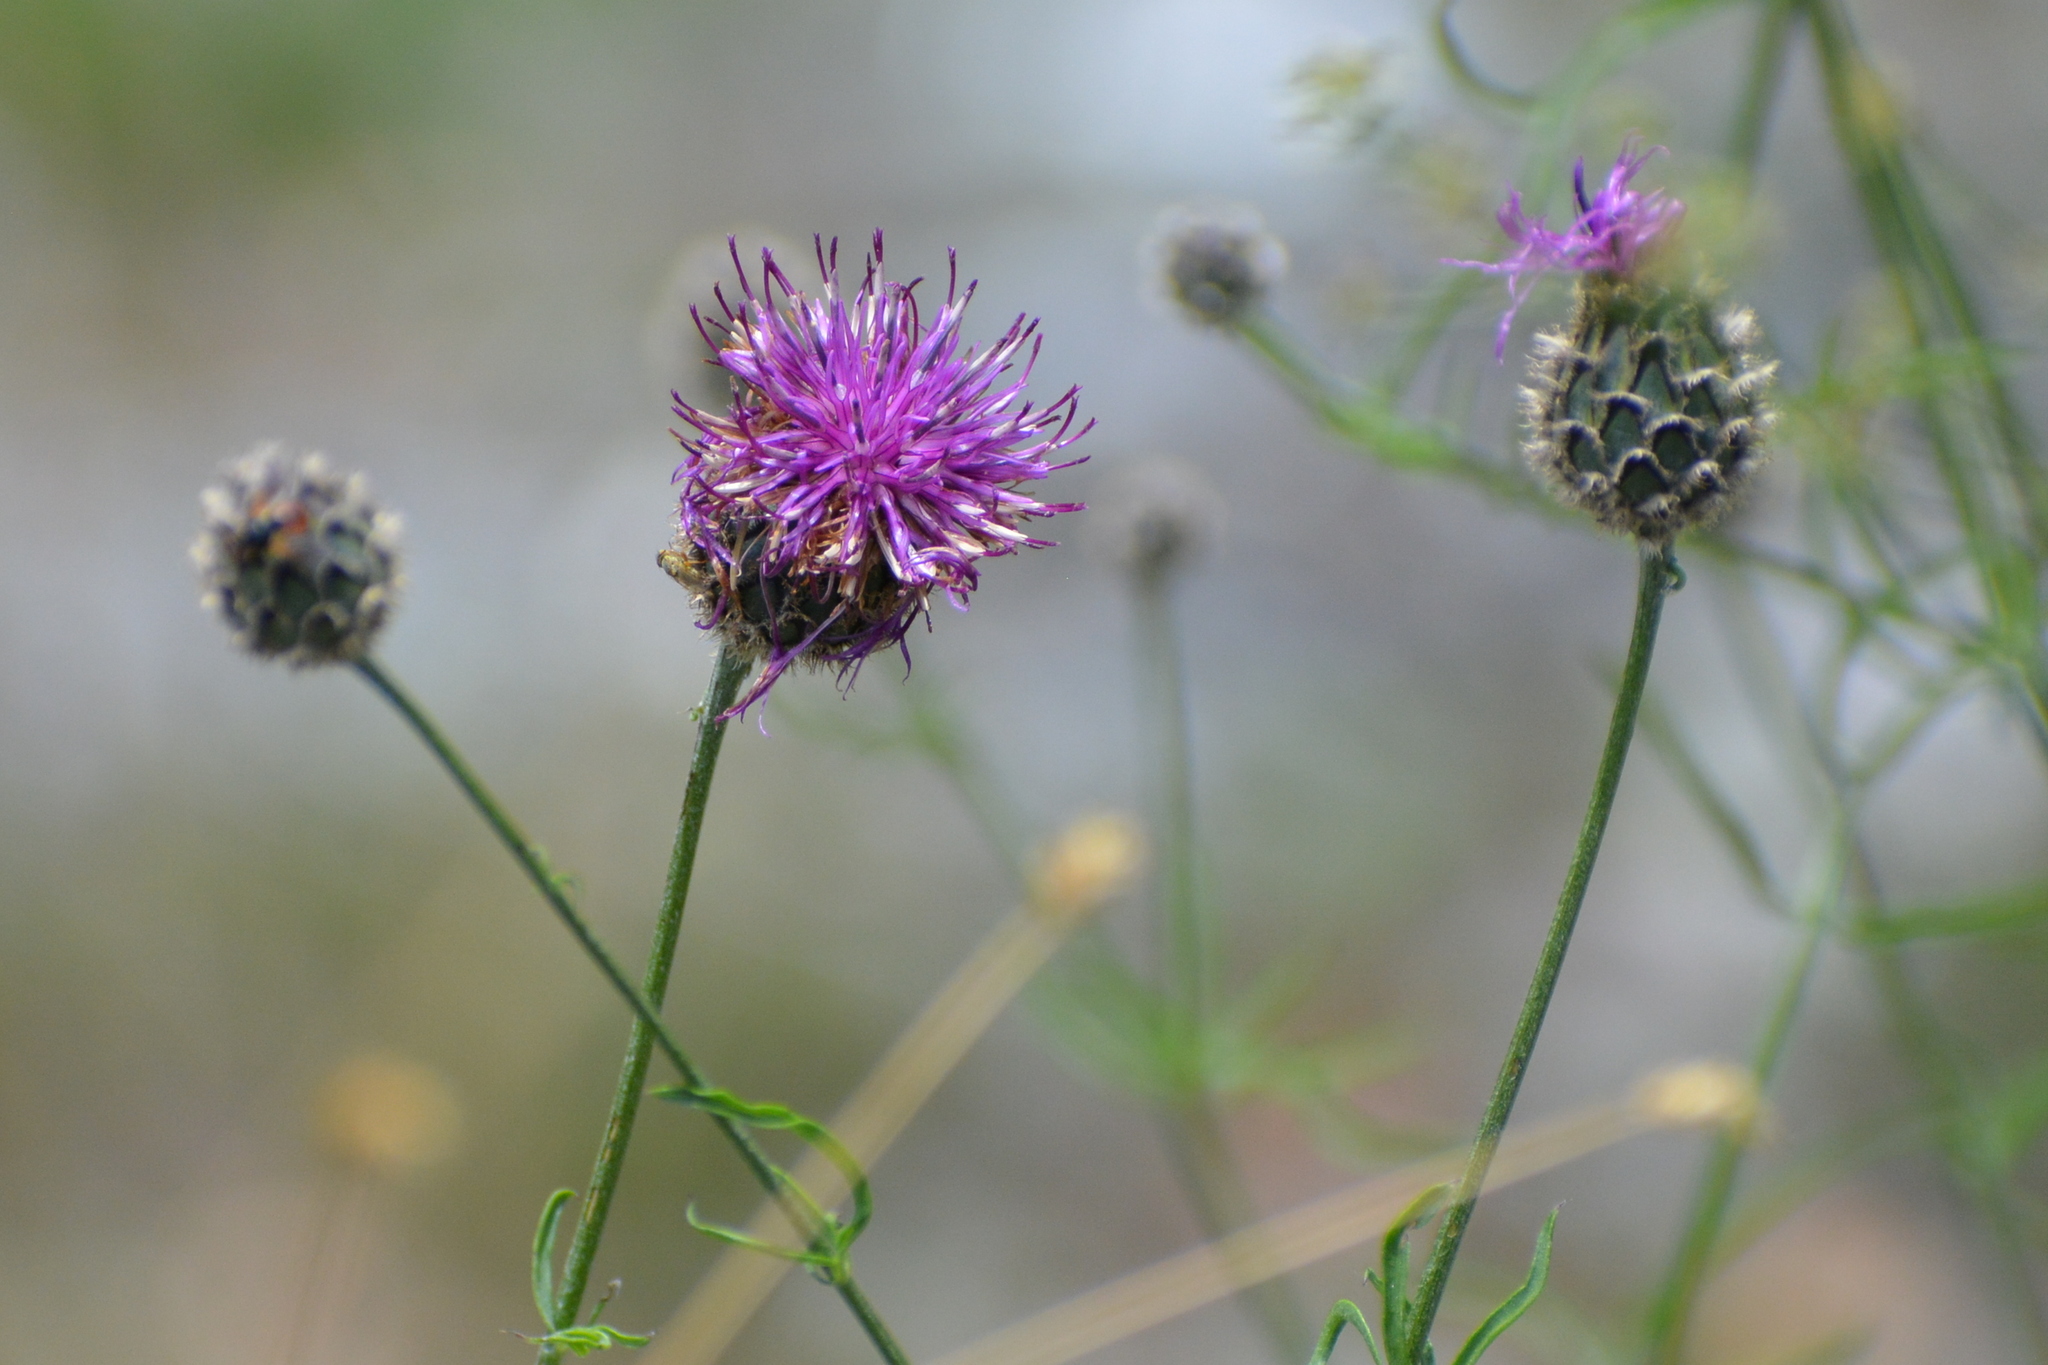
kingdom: Plantae
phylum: Tracheophyta
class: Magnoliopsida
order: Asterales
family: Asteraceae
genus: Centaurea
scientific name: Centaurea scabiosa
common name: Greater knapweed
